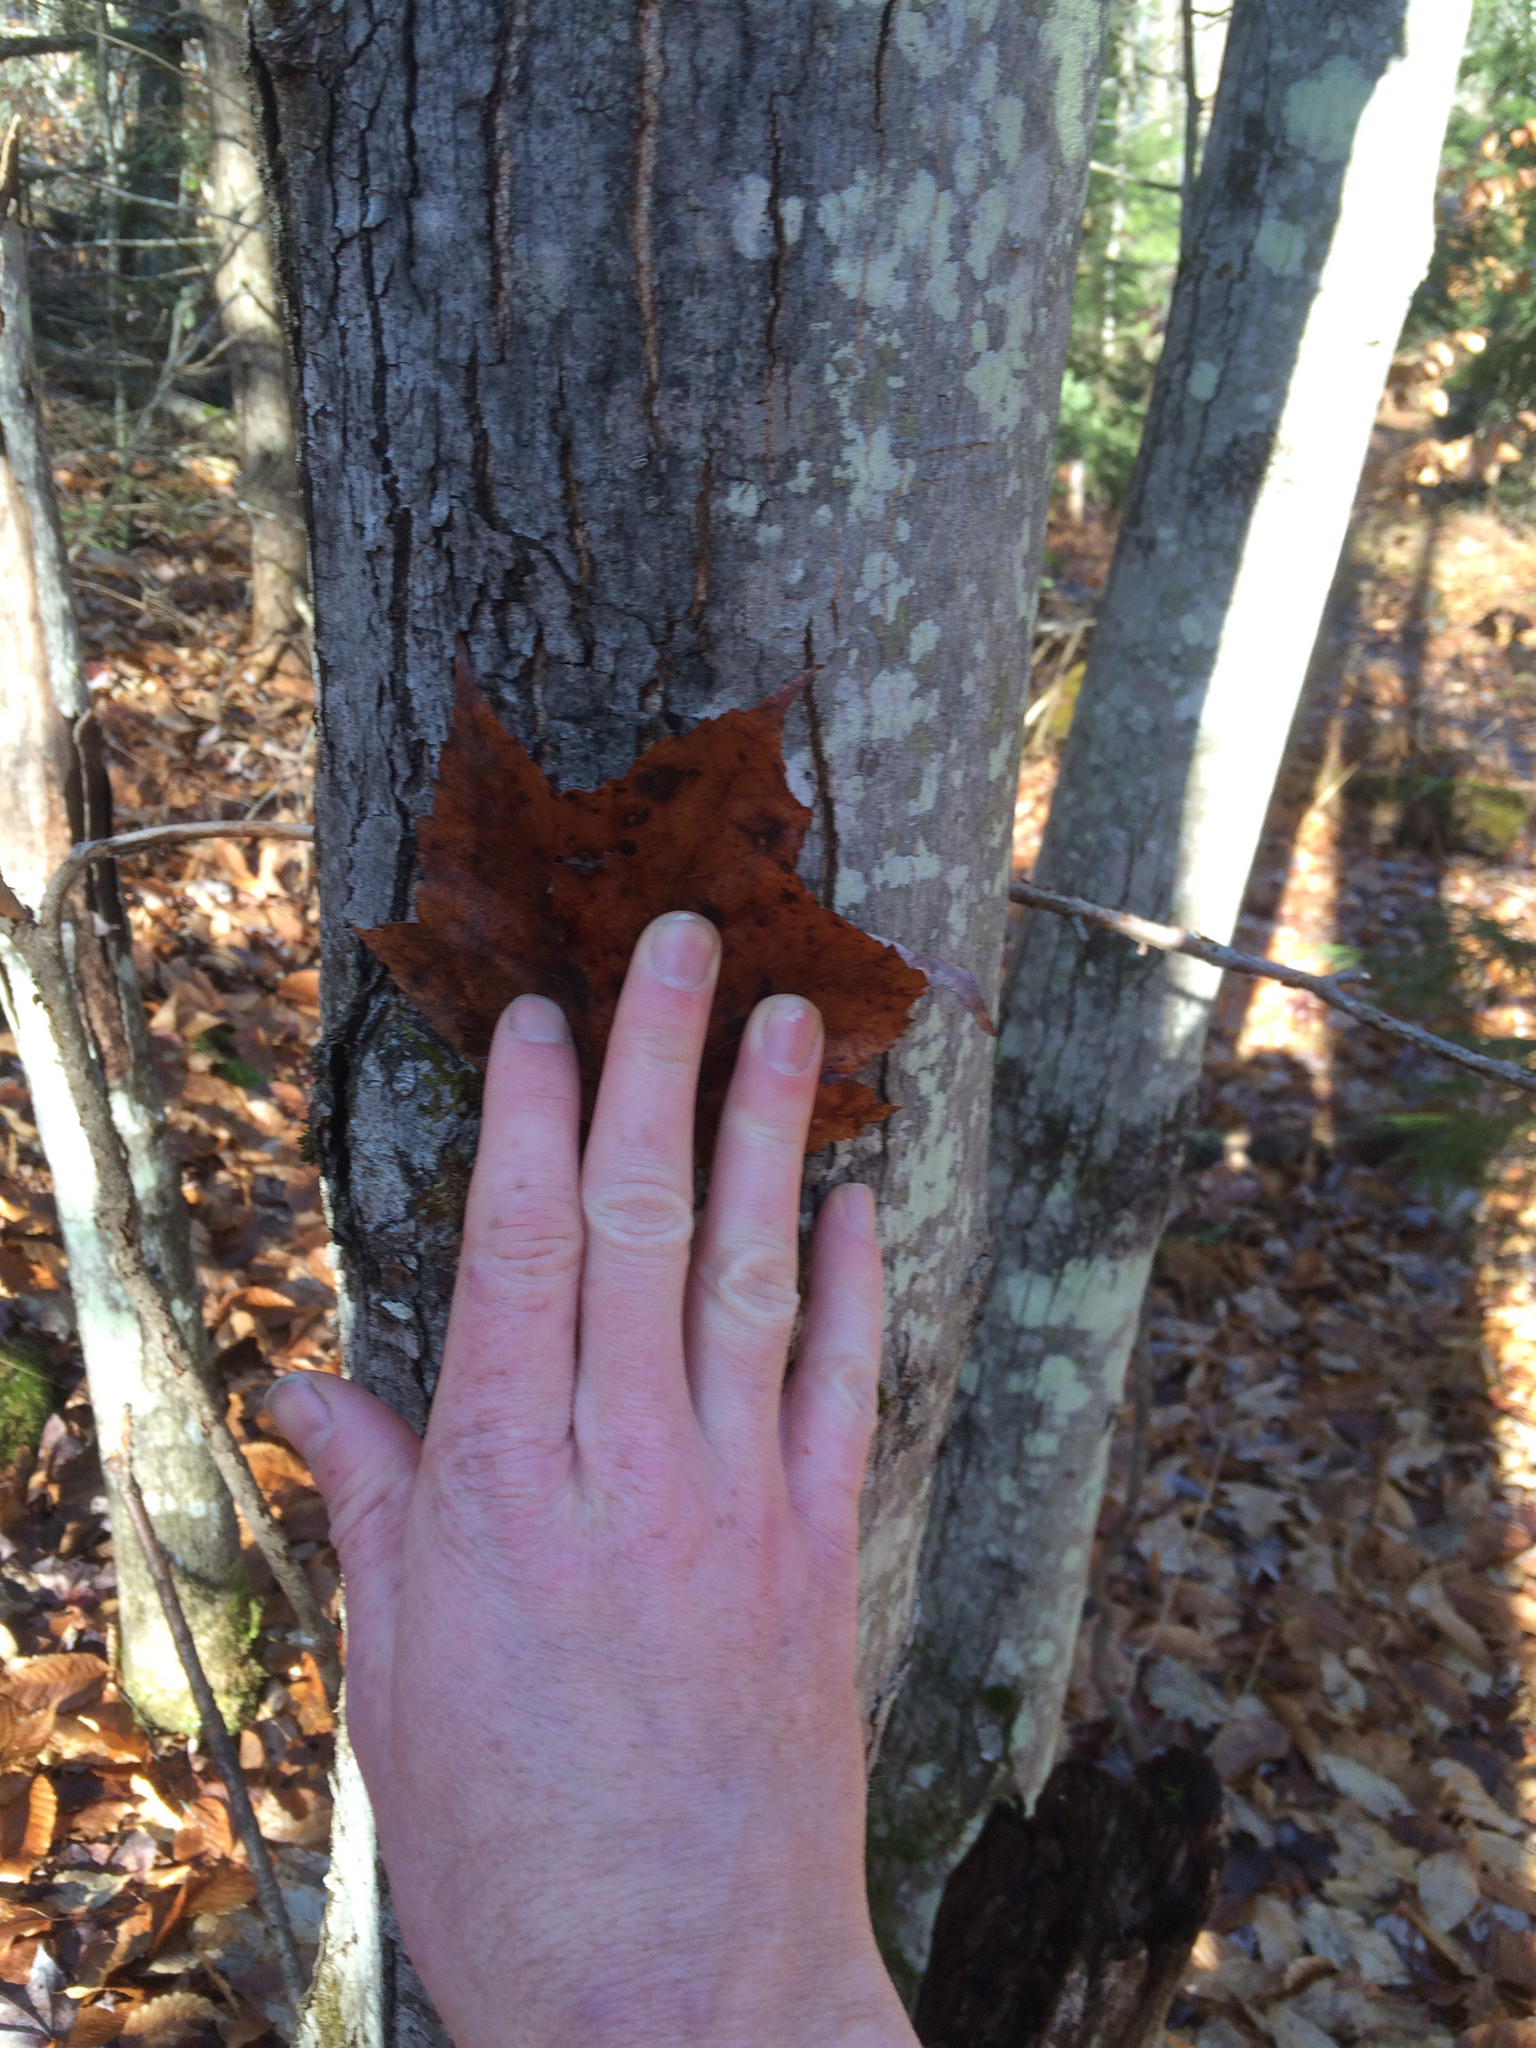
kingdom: Plantae
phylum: Tracheophyta
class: Magnoliopsida
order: Sapindales
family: Sapindaceae
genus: Acer
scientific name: Acer rubrum
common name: Red maple
